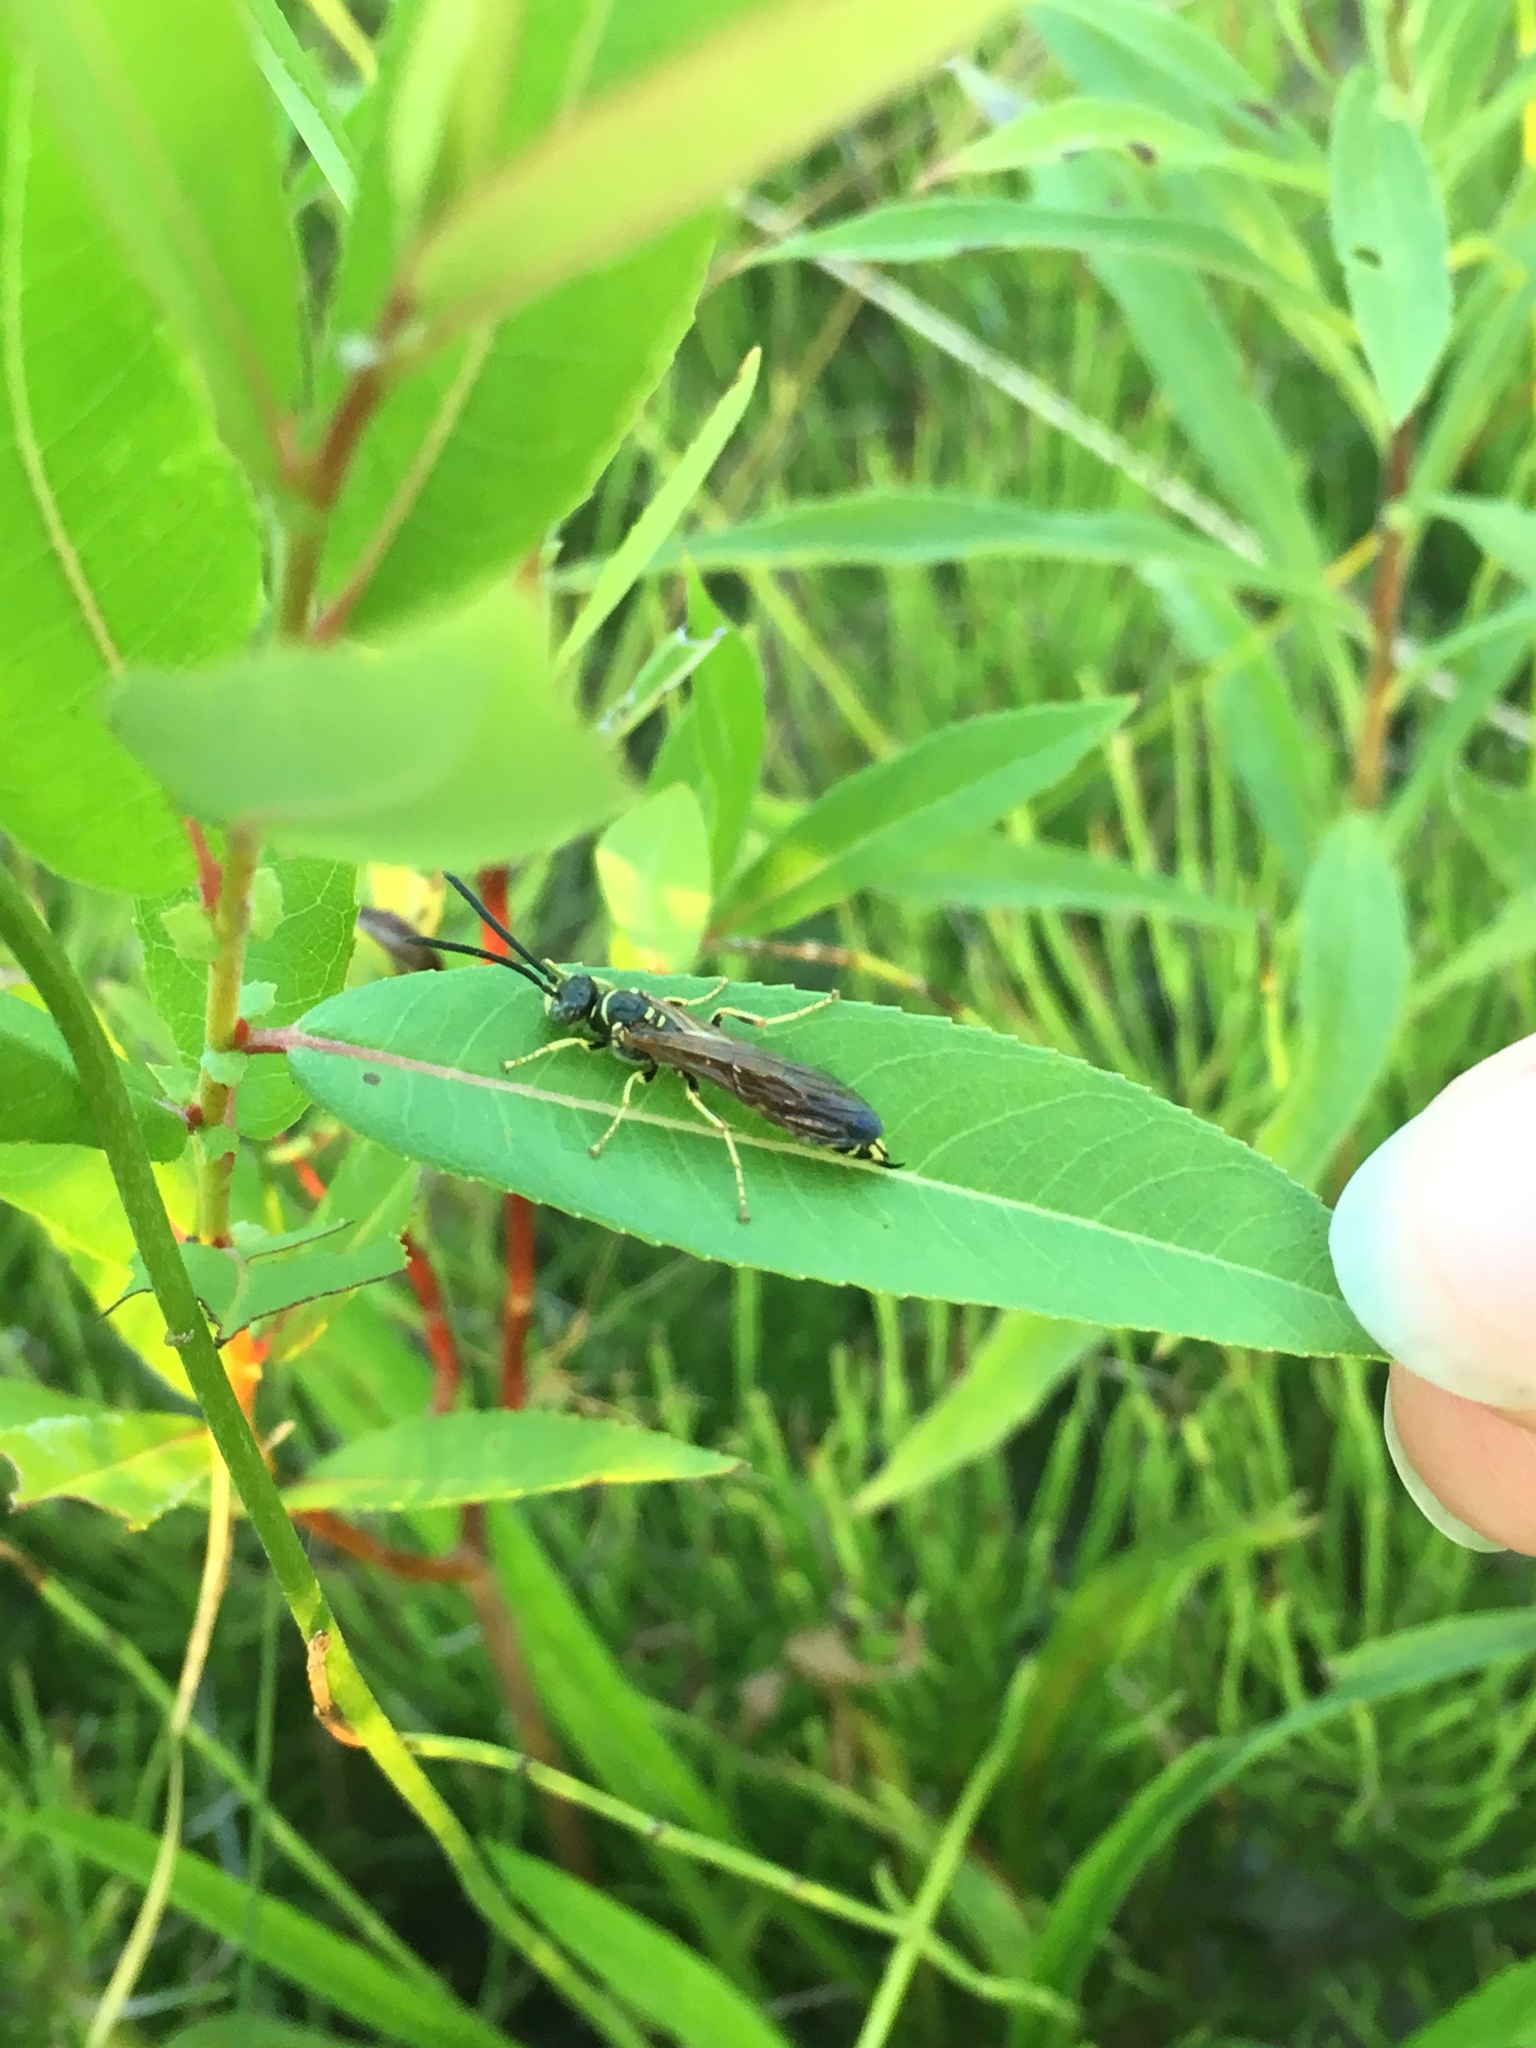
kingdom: Animalia
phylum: Arthropoda
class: Insecta
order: Hymenoptera
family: Tiphiidae
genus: Myzinum
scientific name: Myzinum quinquecinctum
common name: Five-banded thynnid wasp
